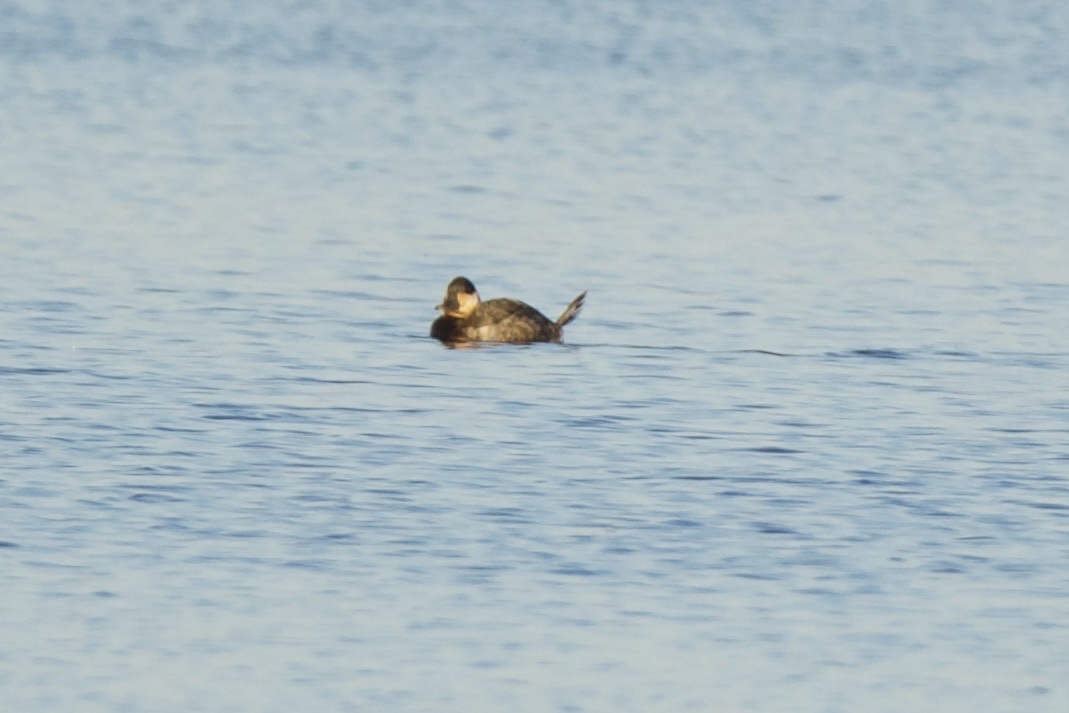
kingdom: Animalia
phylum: Chordata
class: Aves
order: Anseriformes
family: Anatidae
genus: Oxyura
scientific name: Oxyura jamaicensis
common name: Ruddy duck
